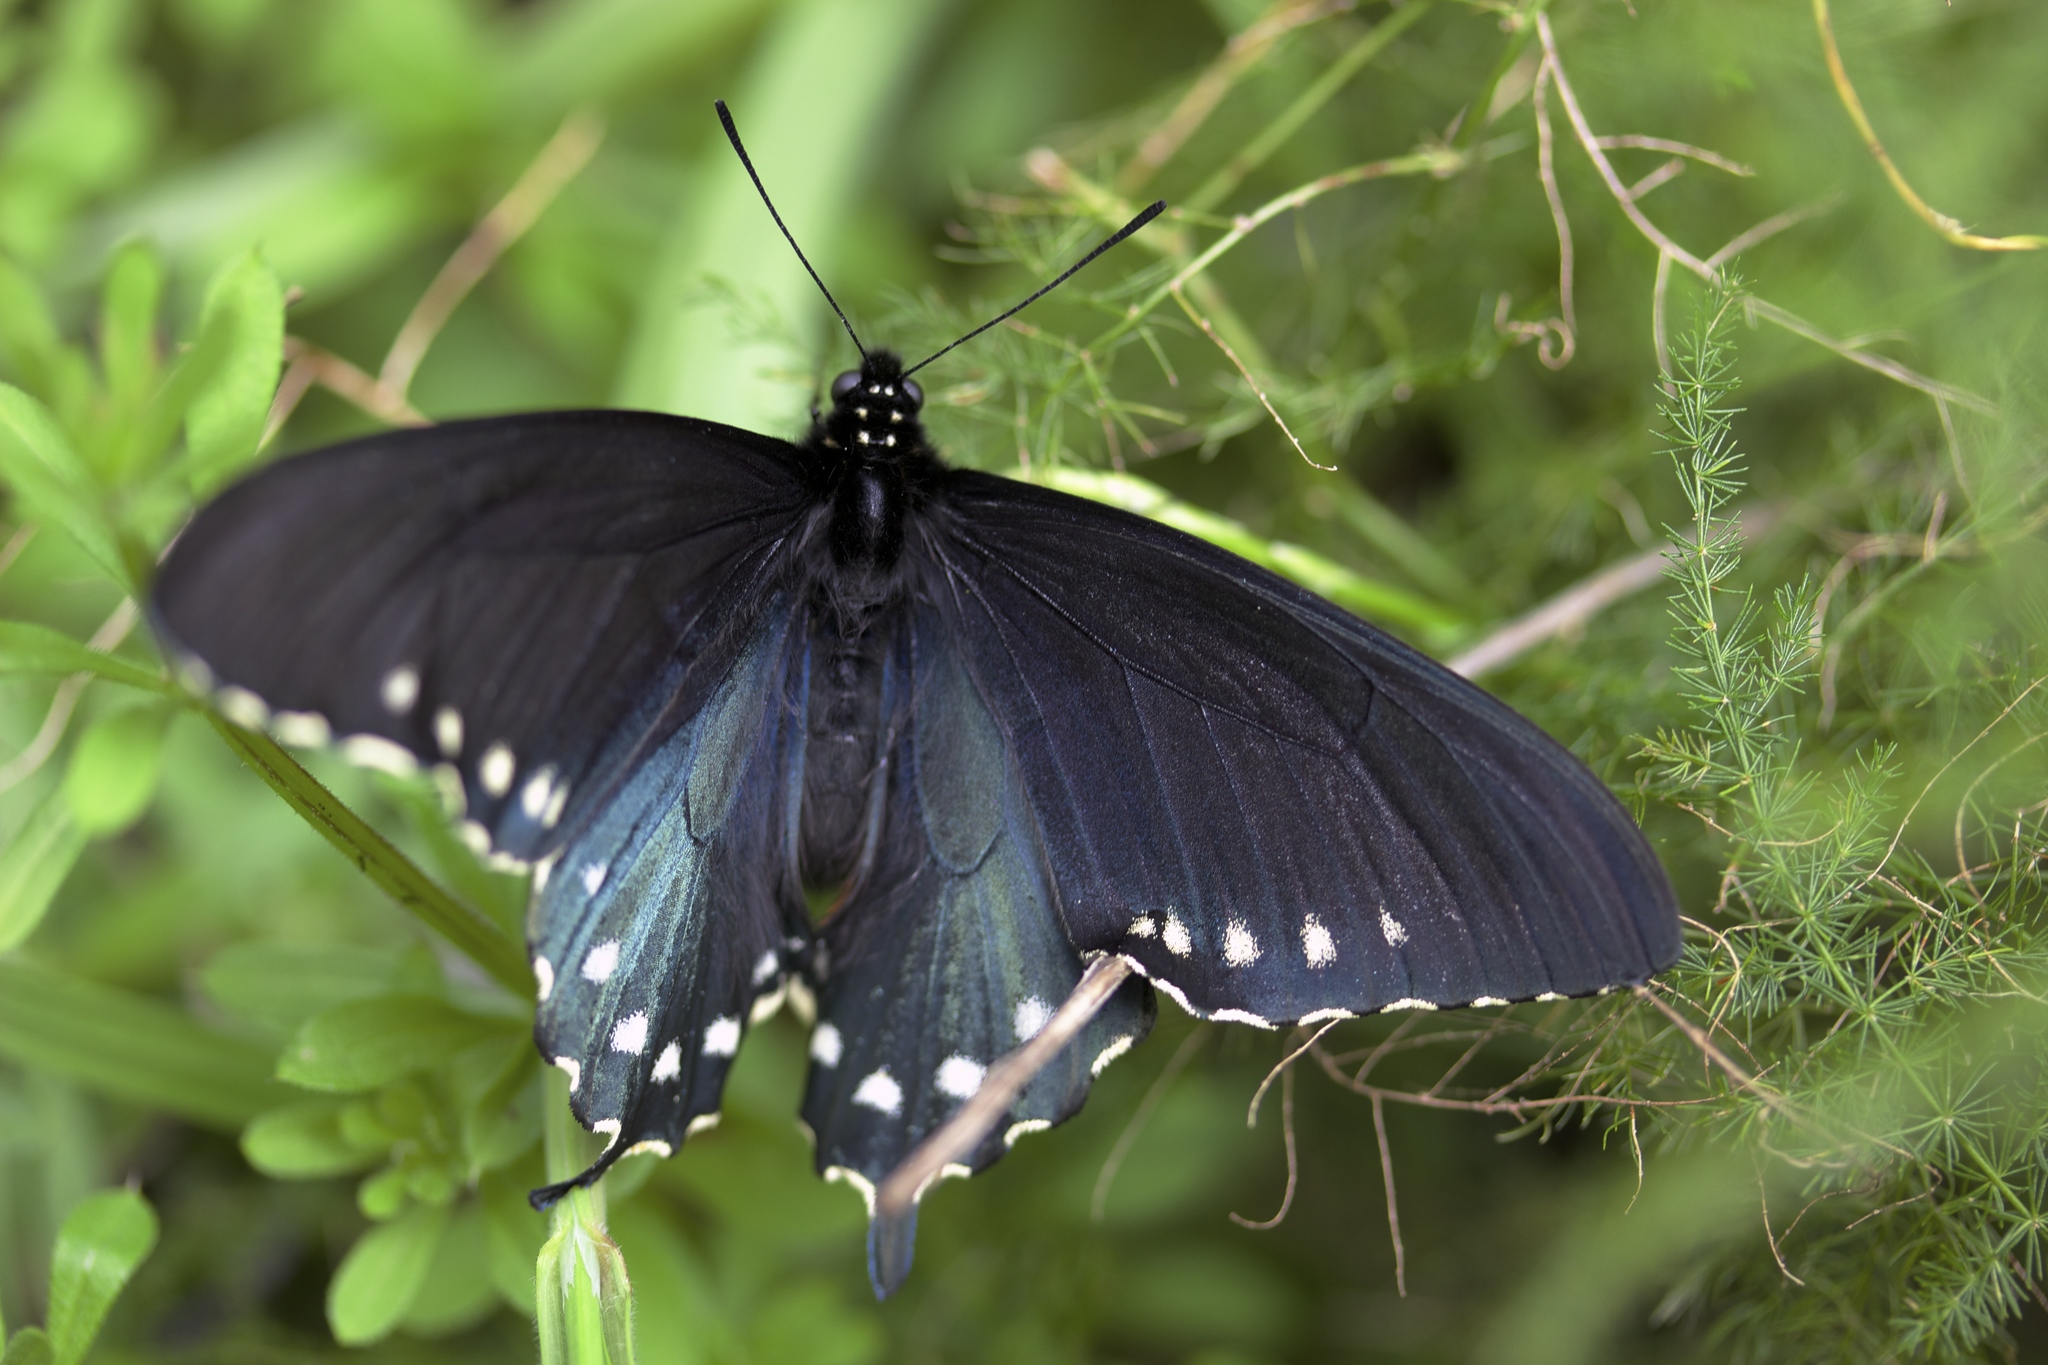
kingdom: Animalia
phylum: Arthropoda
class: Insecta
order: Lepidoptera
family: Papilionidae
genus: Battus
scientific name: Battus philenor
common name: Pipevine swallowtail
